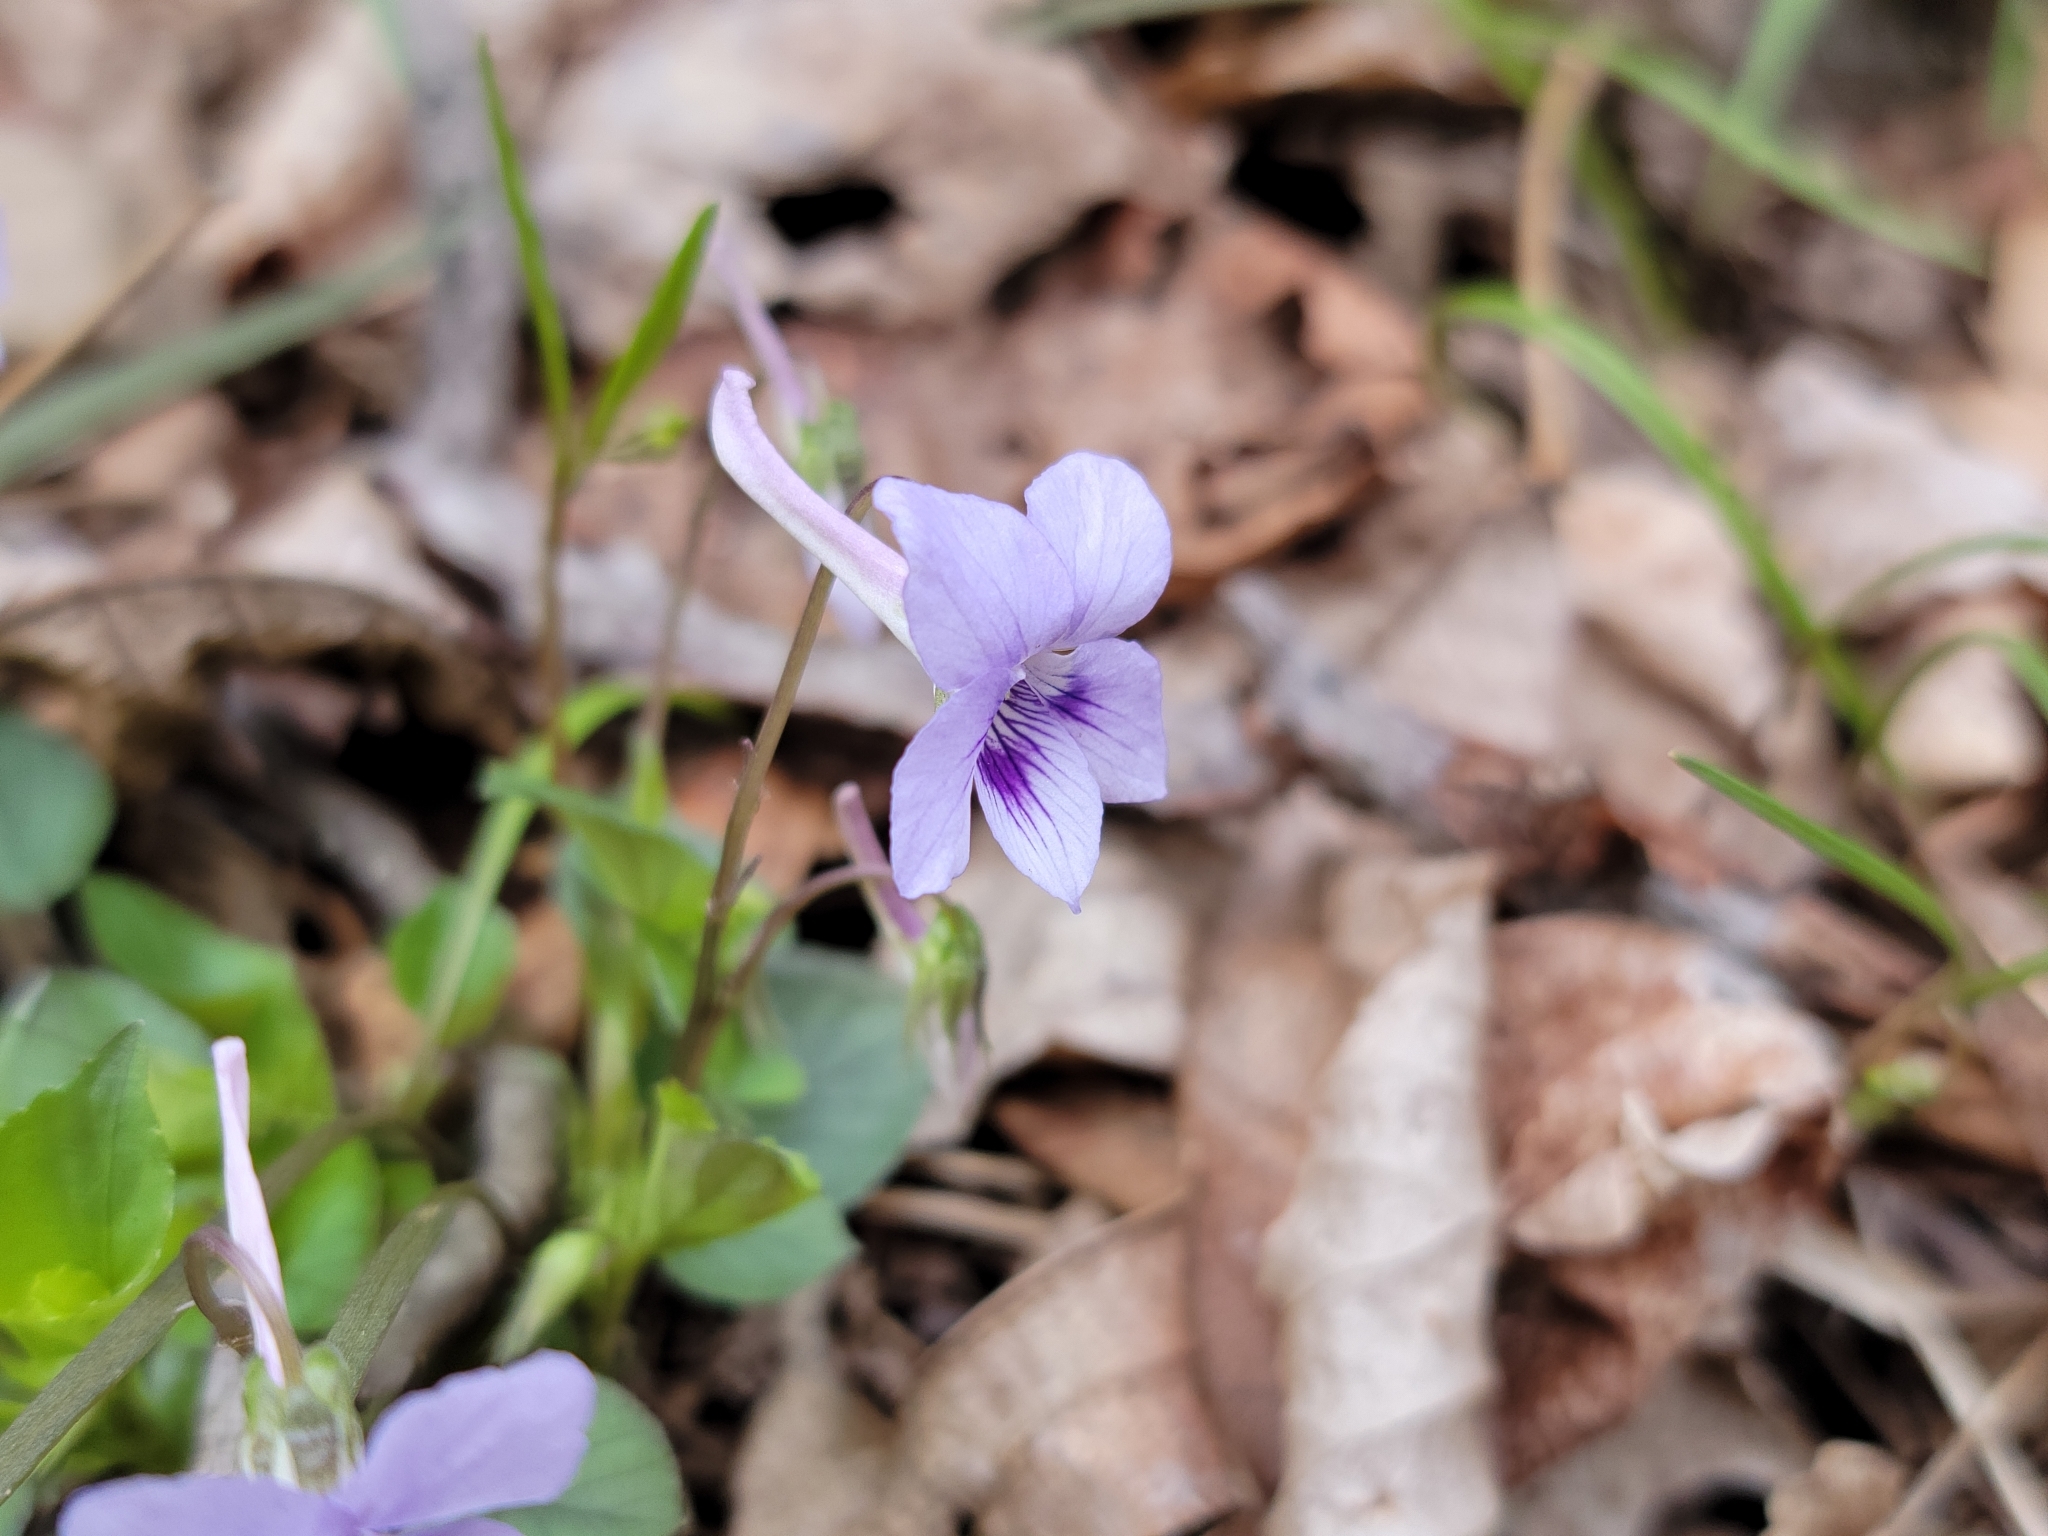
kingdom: Plantae
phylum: Tracheophyta
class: Magnoliopsida
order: Malpighiales
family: Violaceae
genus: Viola
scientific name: Viola rostrata
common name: Long-spur violet
